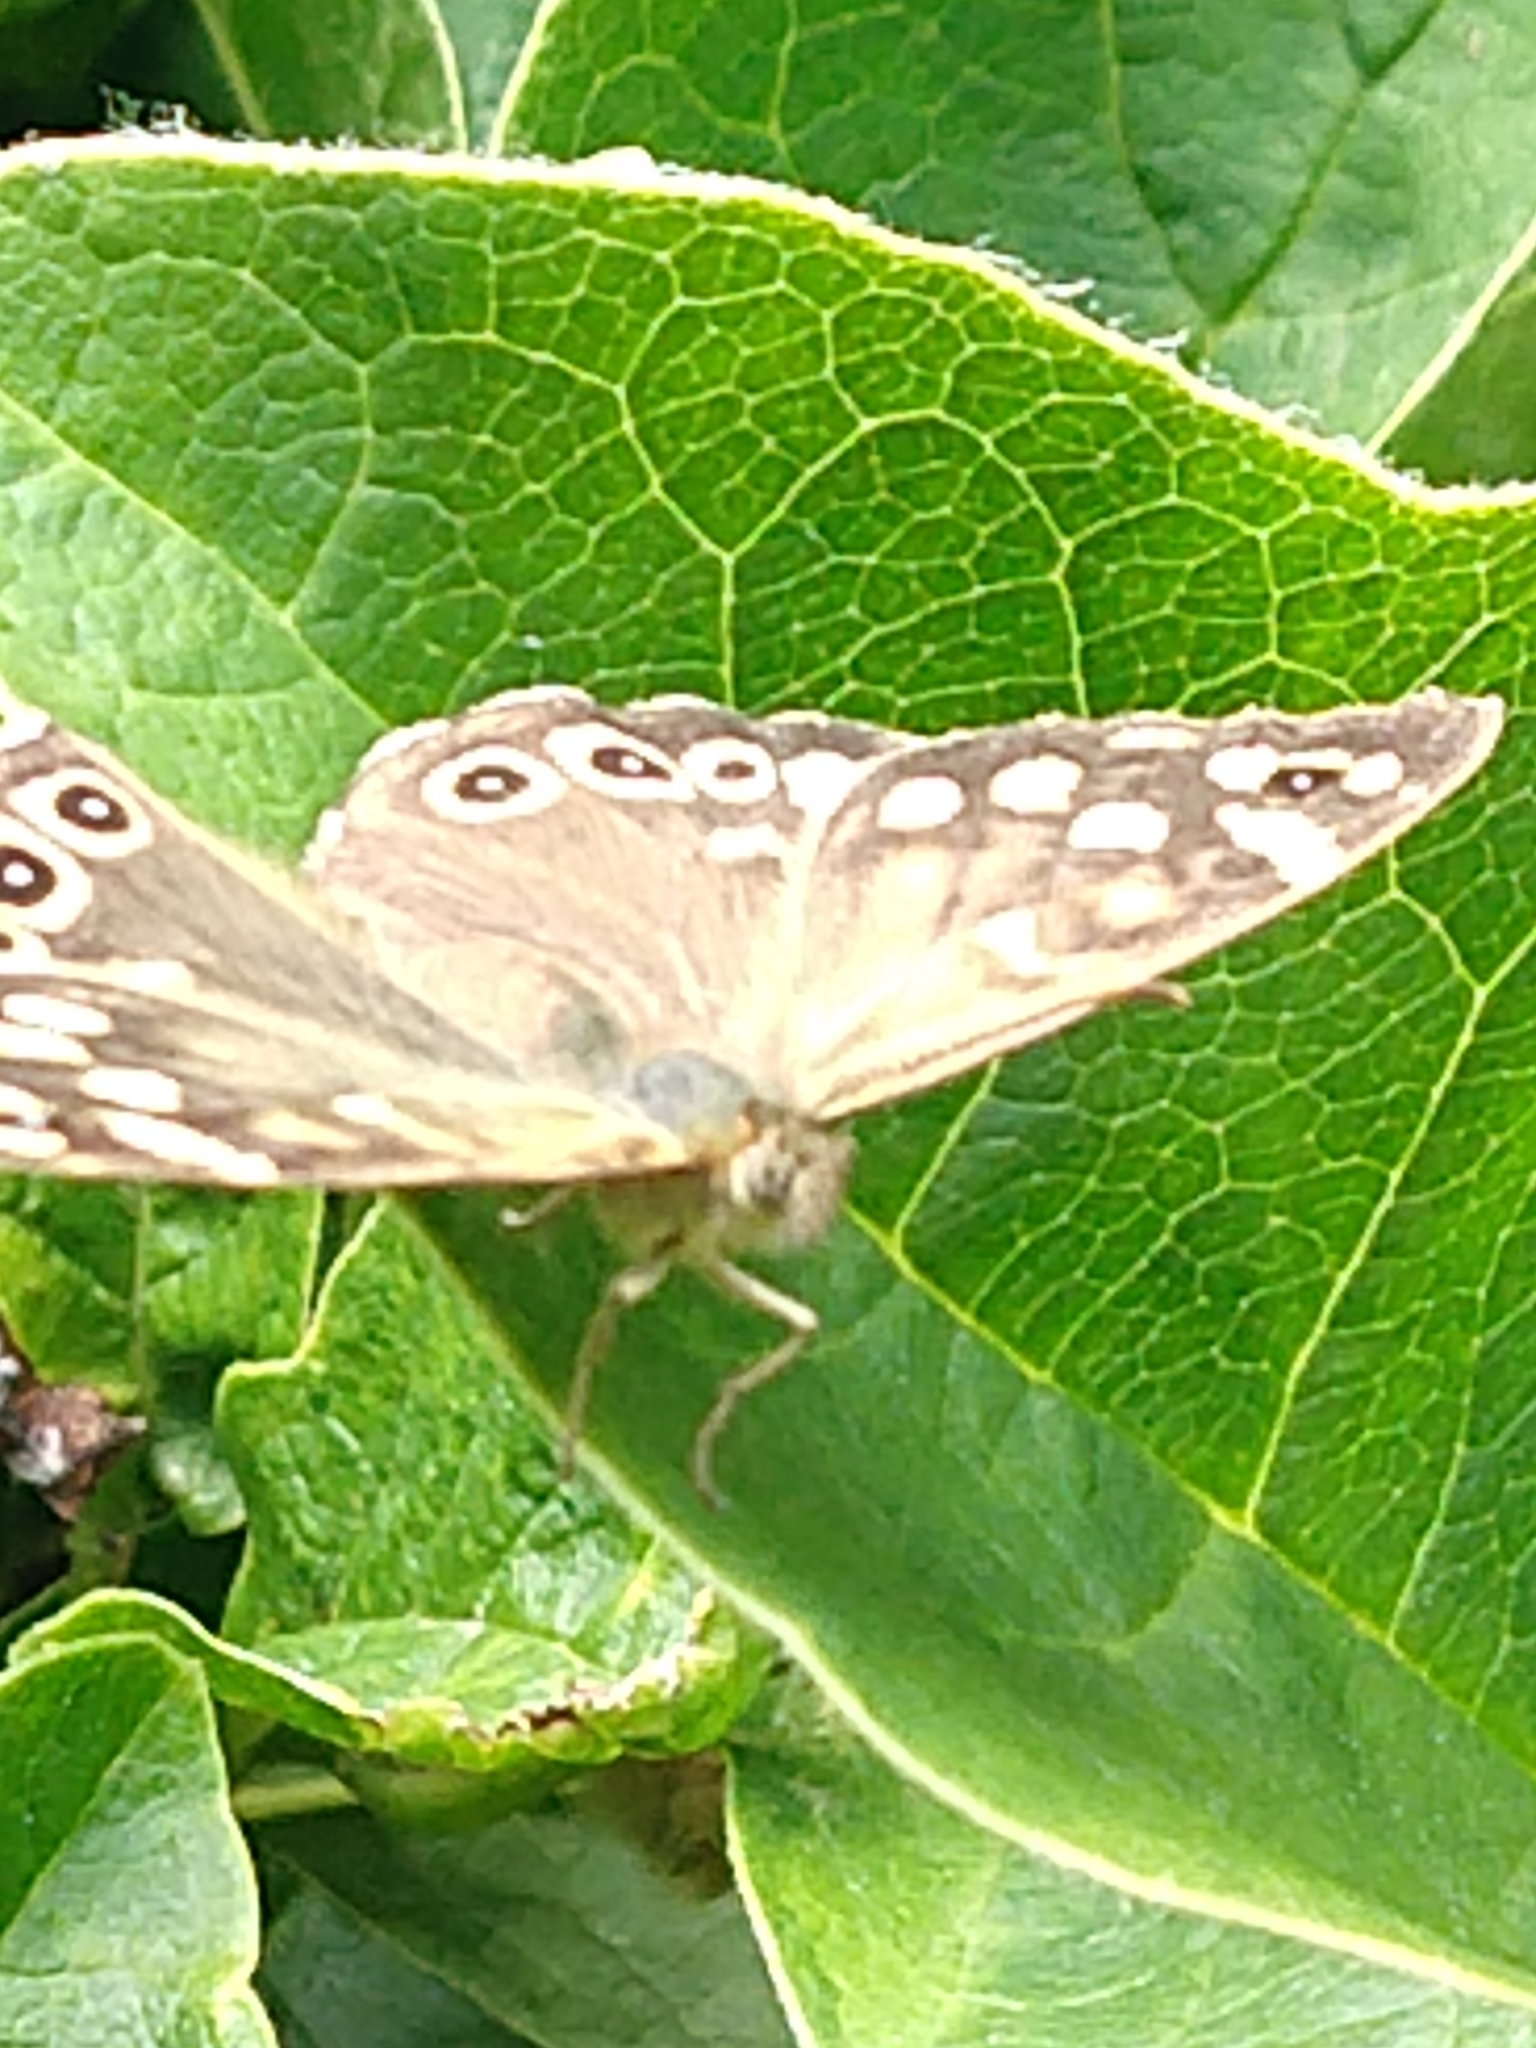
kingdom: Animalia
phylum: Arthropoda
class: Insecta
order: Lepidoptera
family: Nymphalidae
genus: Pararge
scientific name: Pararge aegeria
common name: Speckled wood
